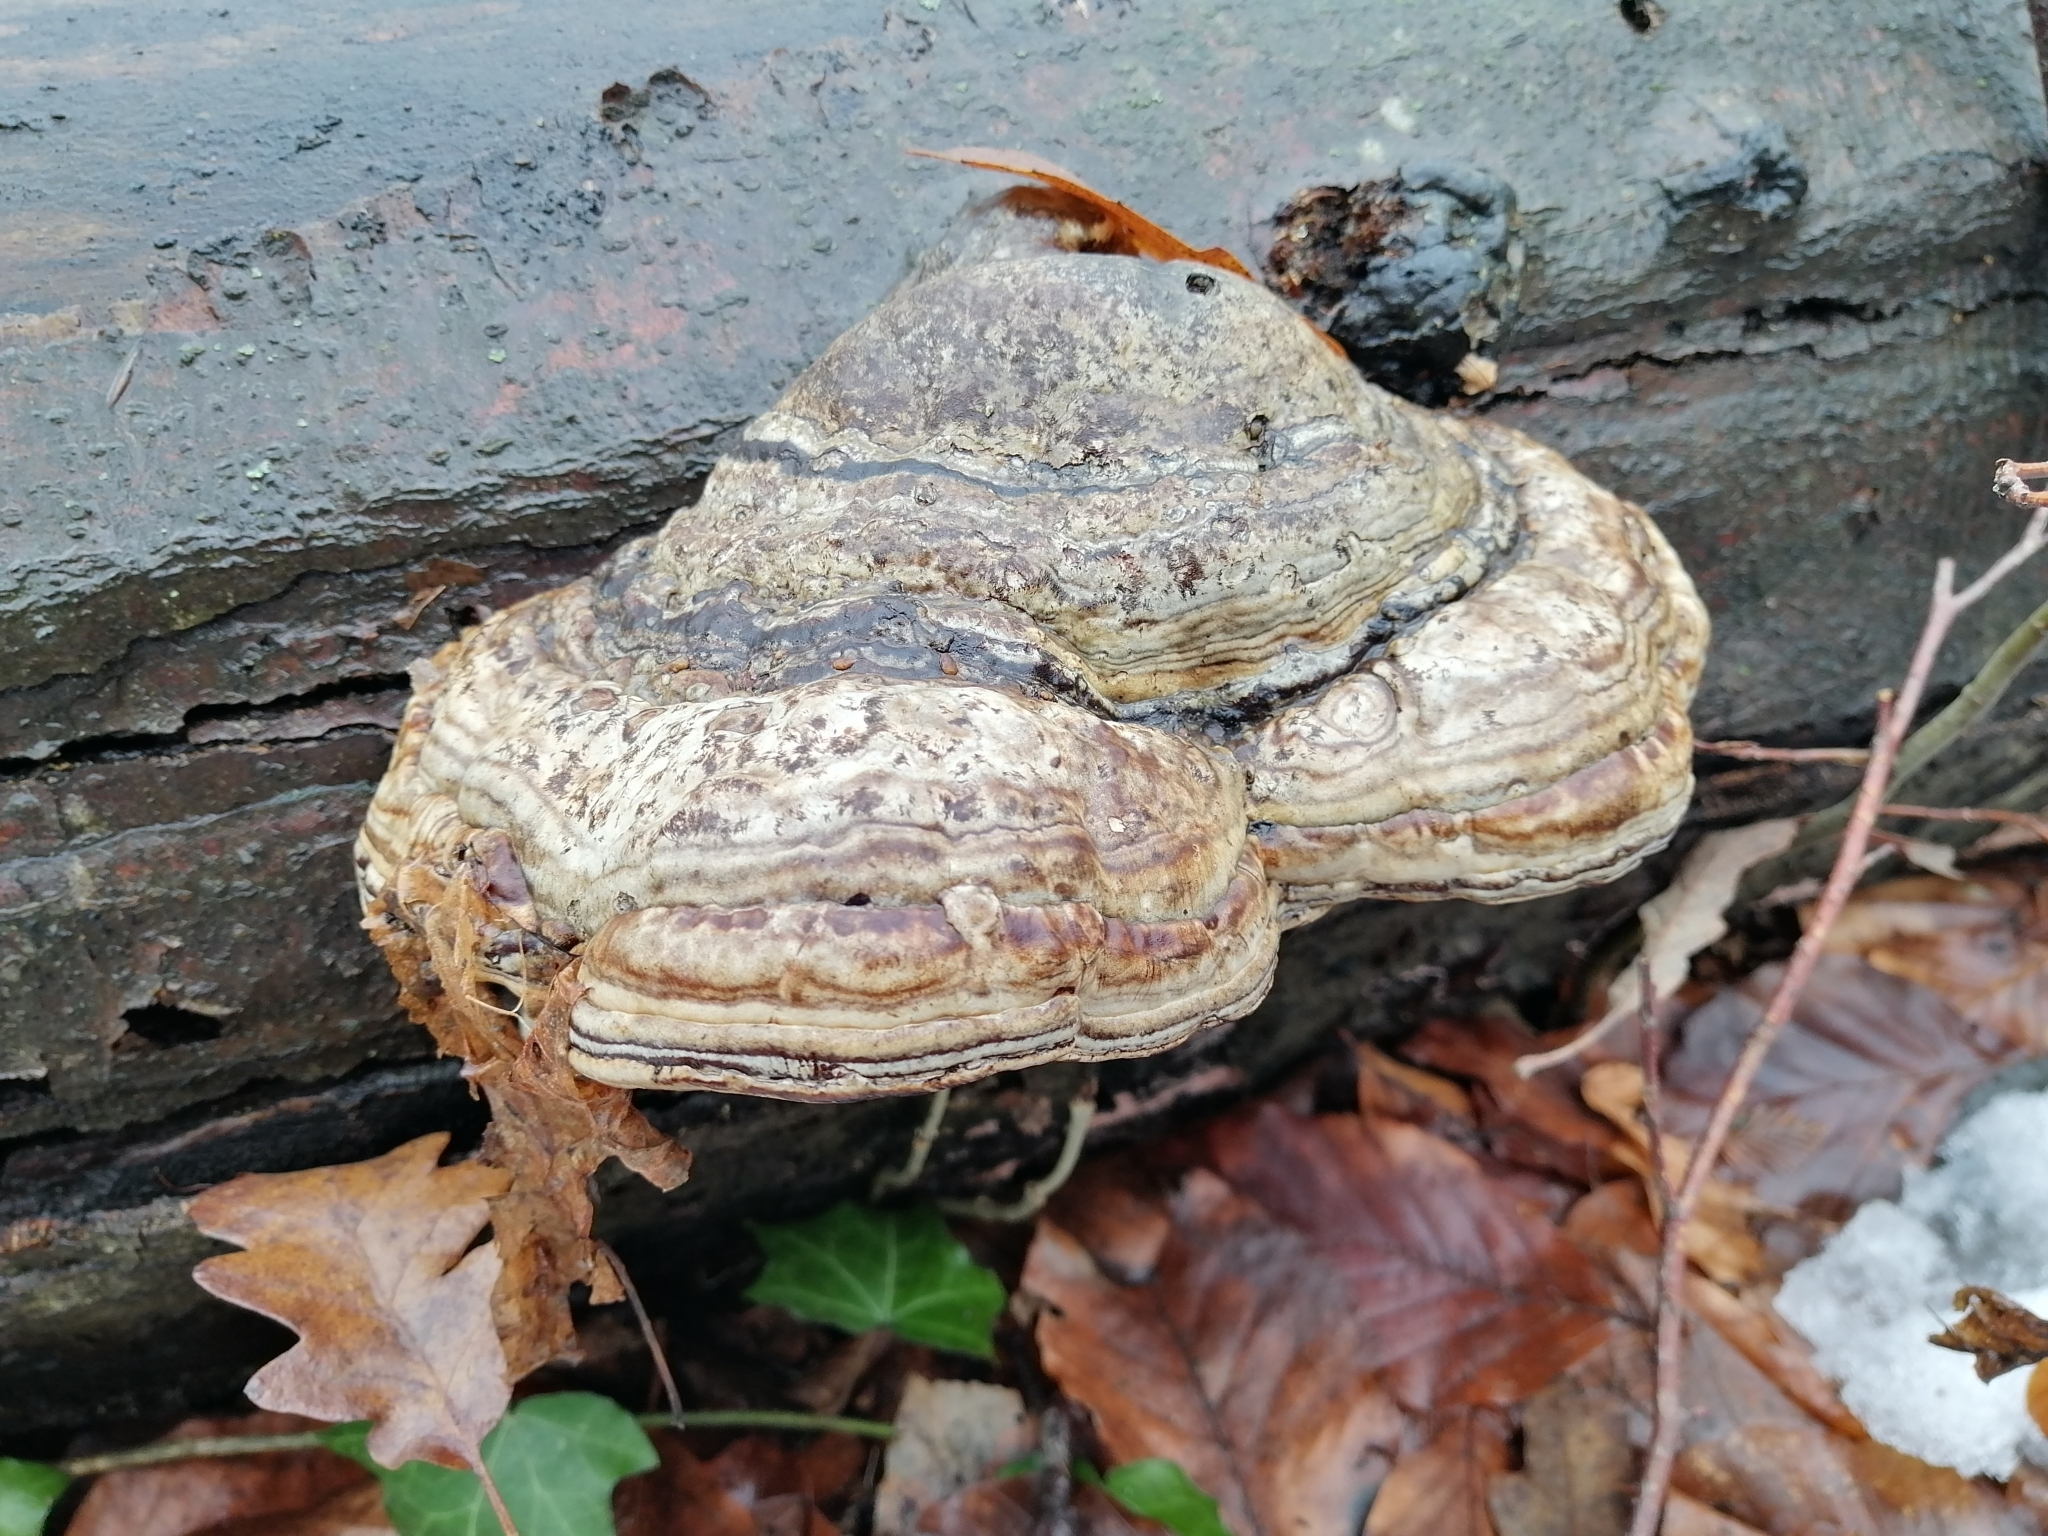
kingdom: Fungi
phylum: Basidiomycota
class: Agaricomycetes
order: Polyporales
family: Polyporaceae
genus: Fomes
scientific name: Fomes fomentarius
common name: Hoof fungus
